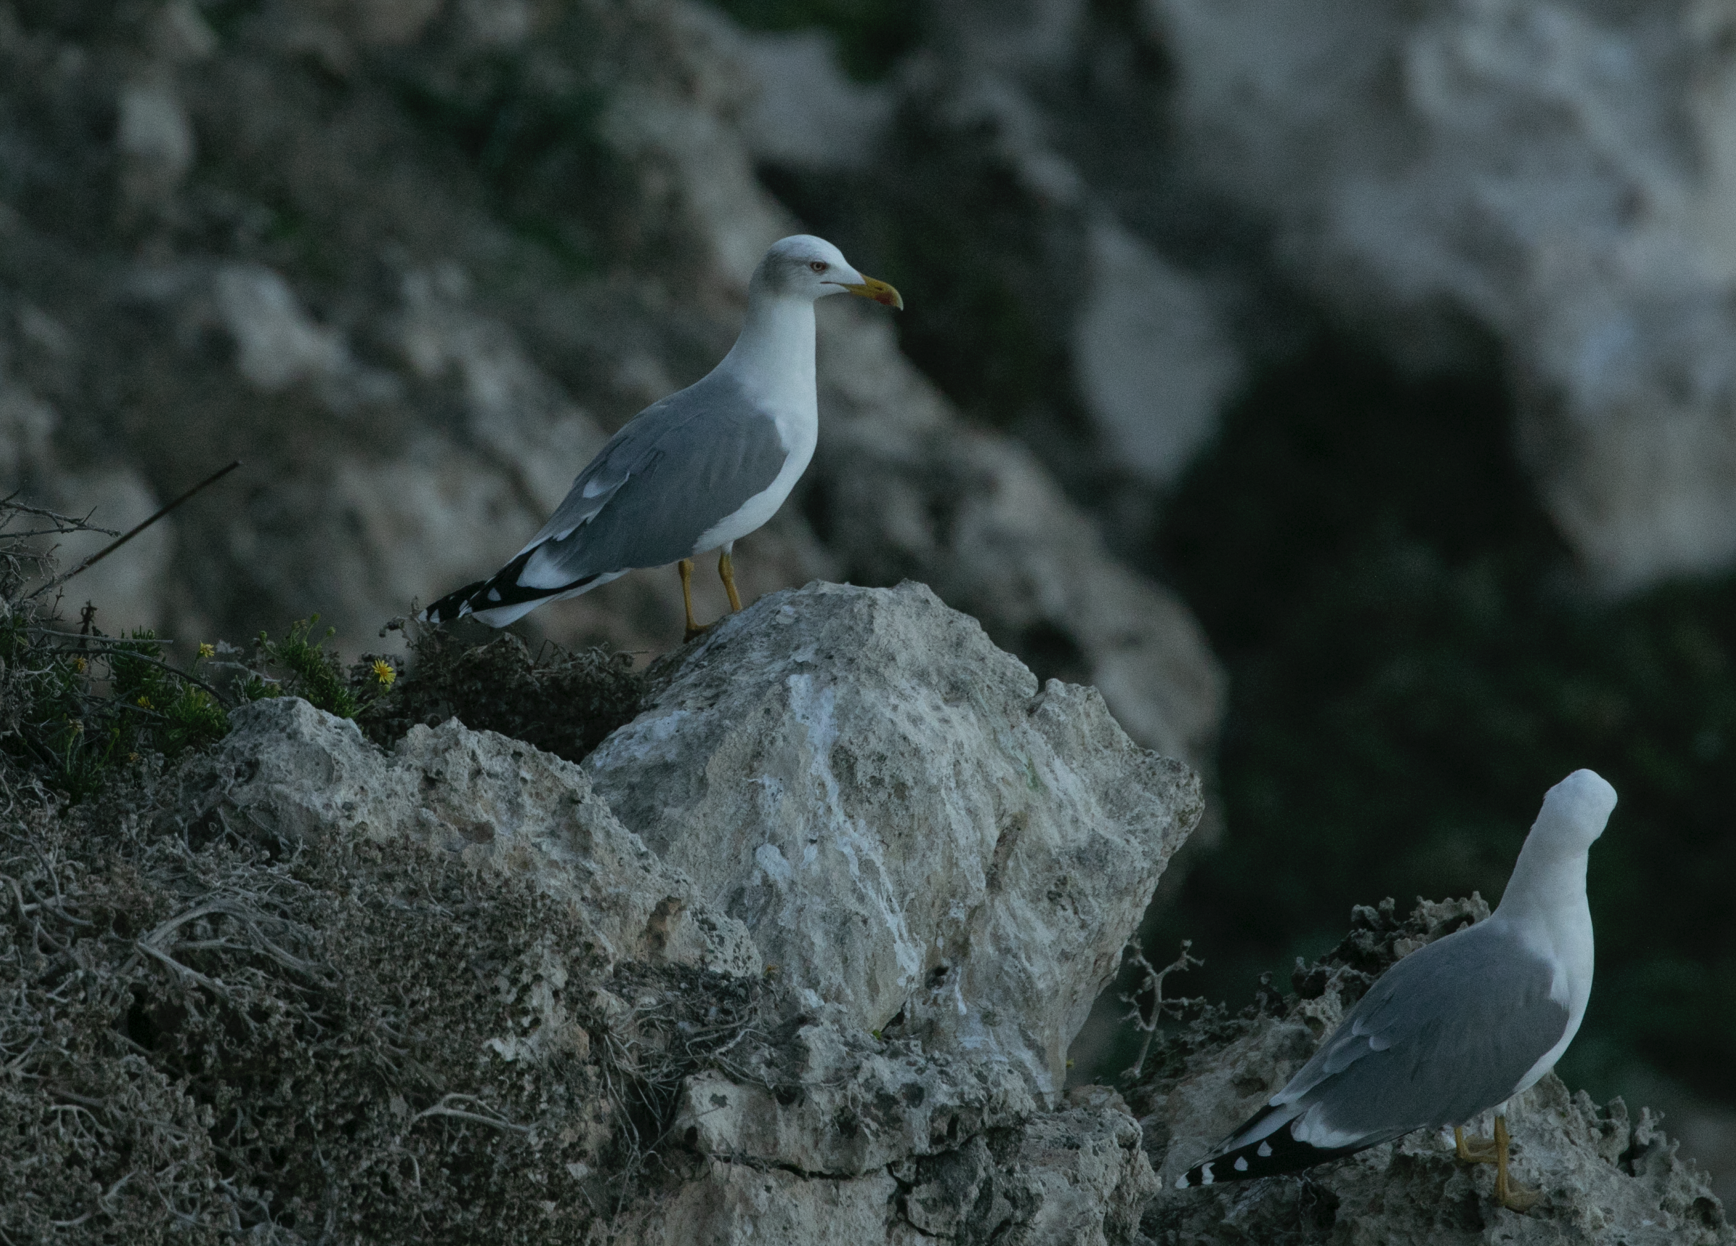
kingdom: Animalia
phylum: Chordata
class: Aves
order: Charadriiformes
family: Laridae
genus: Larus
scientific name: Larus michahellis
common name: Yellow-legged gull
